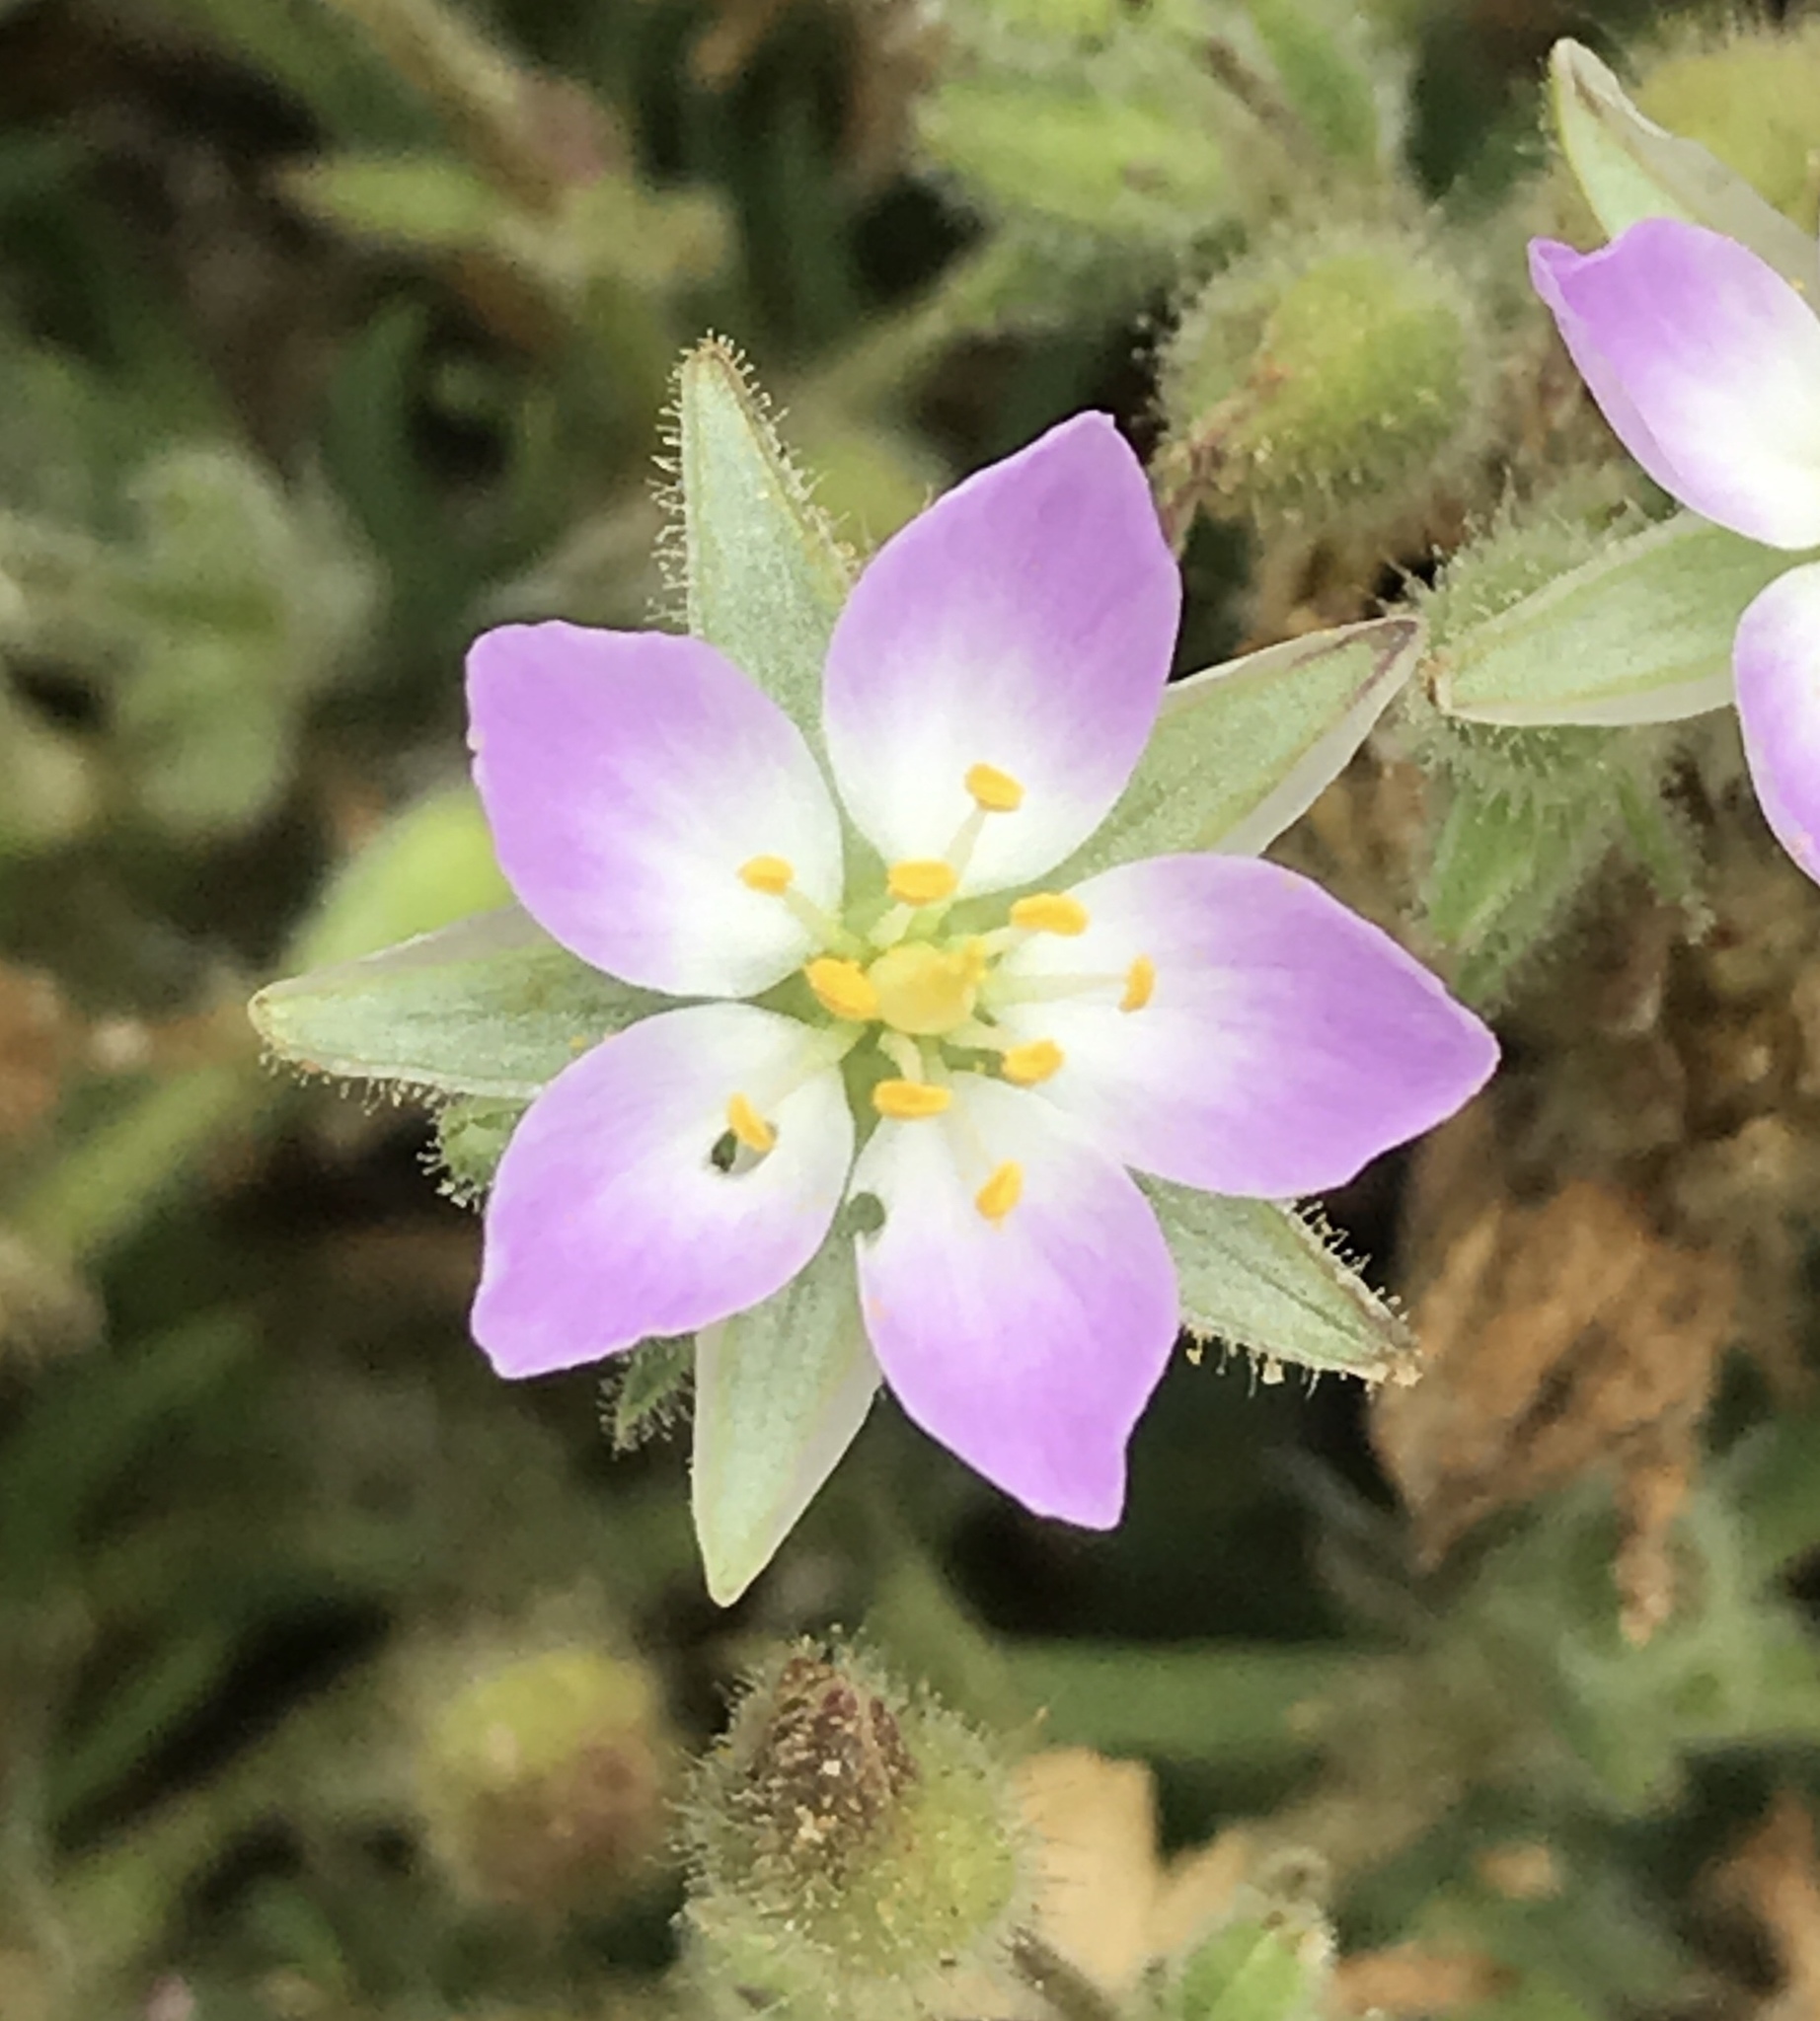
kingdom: Plantae
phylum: Tracheophyta
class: Magnoliopsida
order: Caryophyllales
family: Caryophyllaceae
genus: Spergularia
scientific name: Spergularia macrotheca
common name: Beach sand-spurrey
